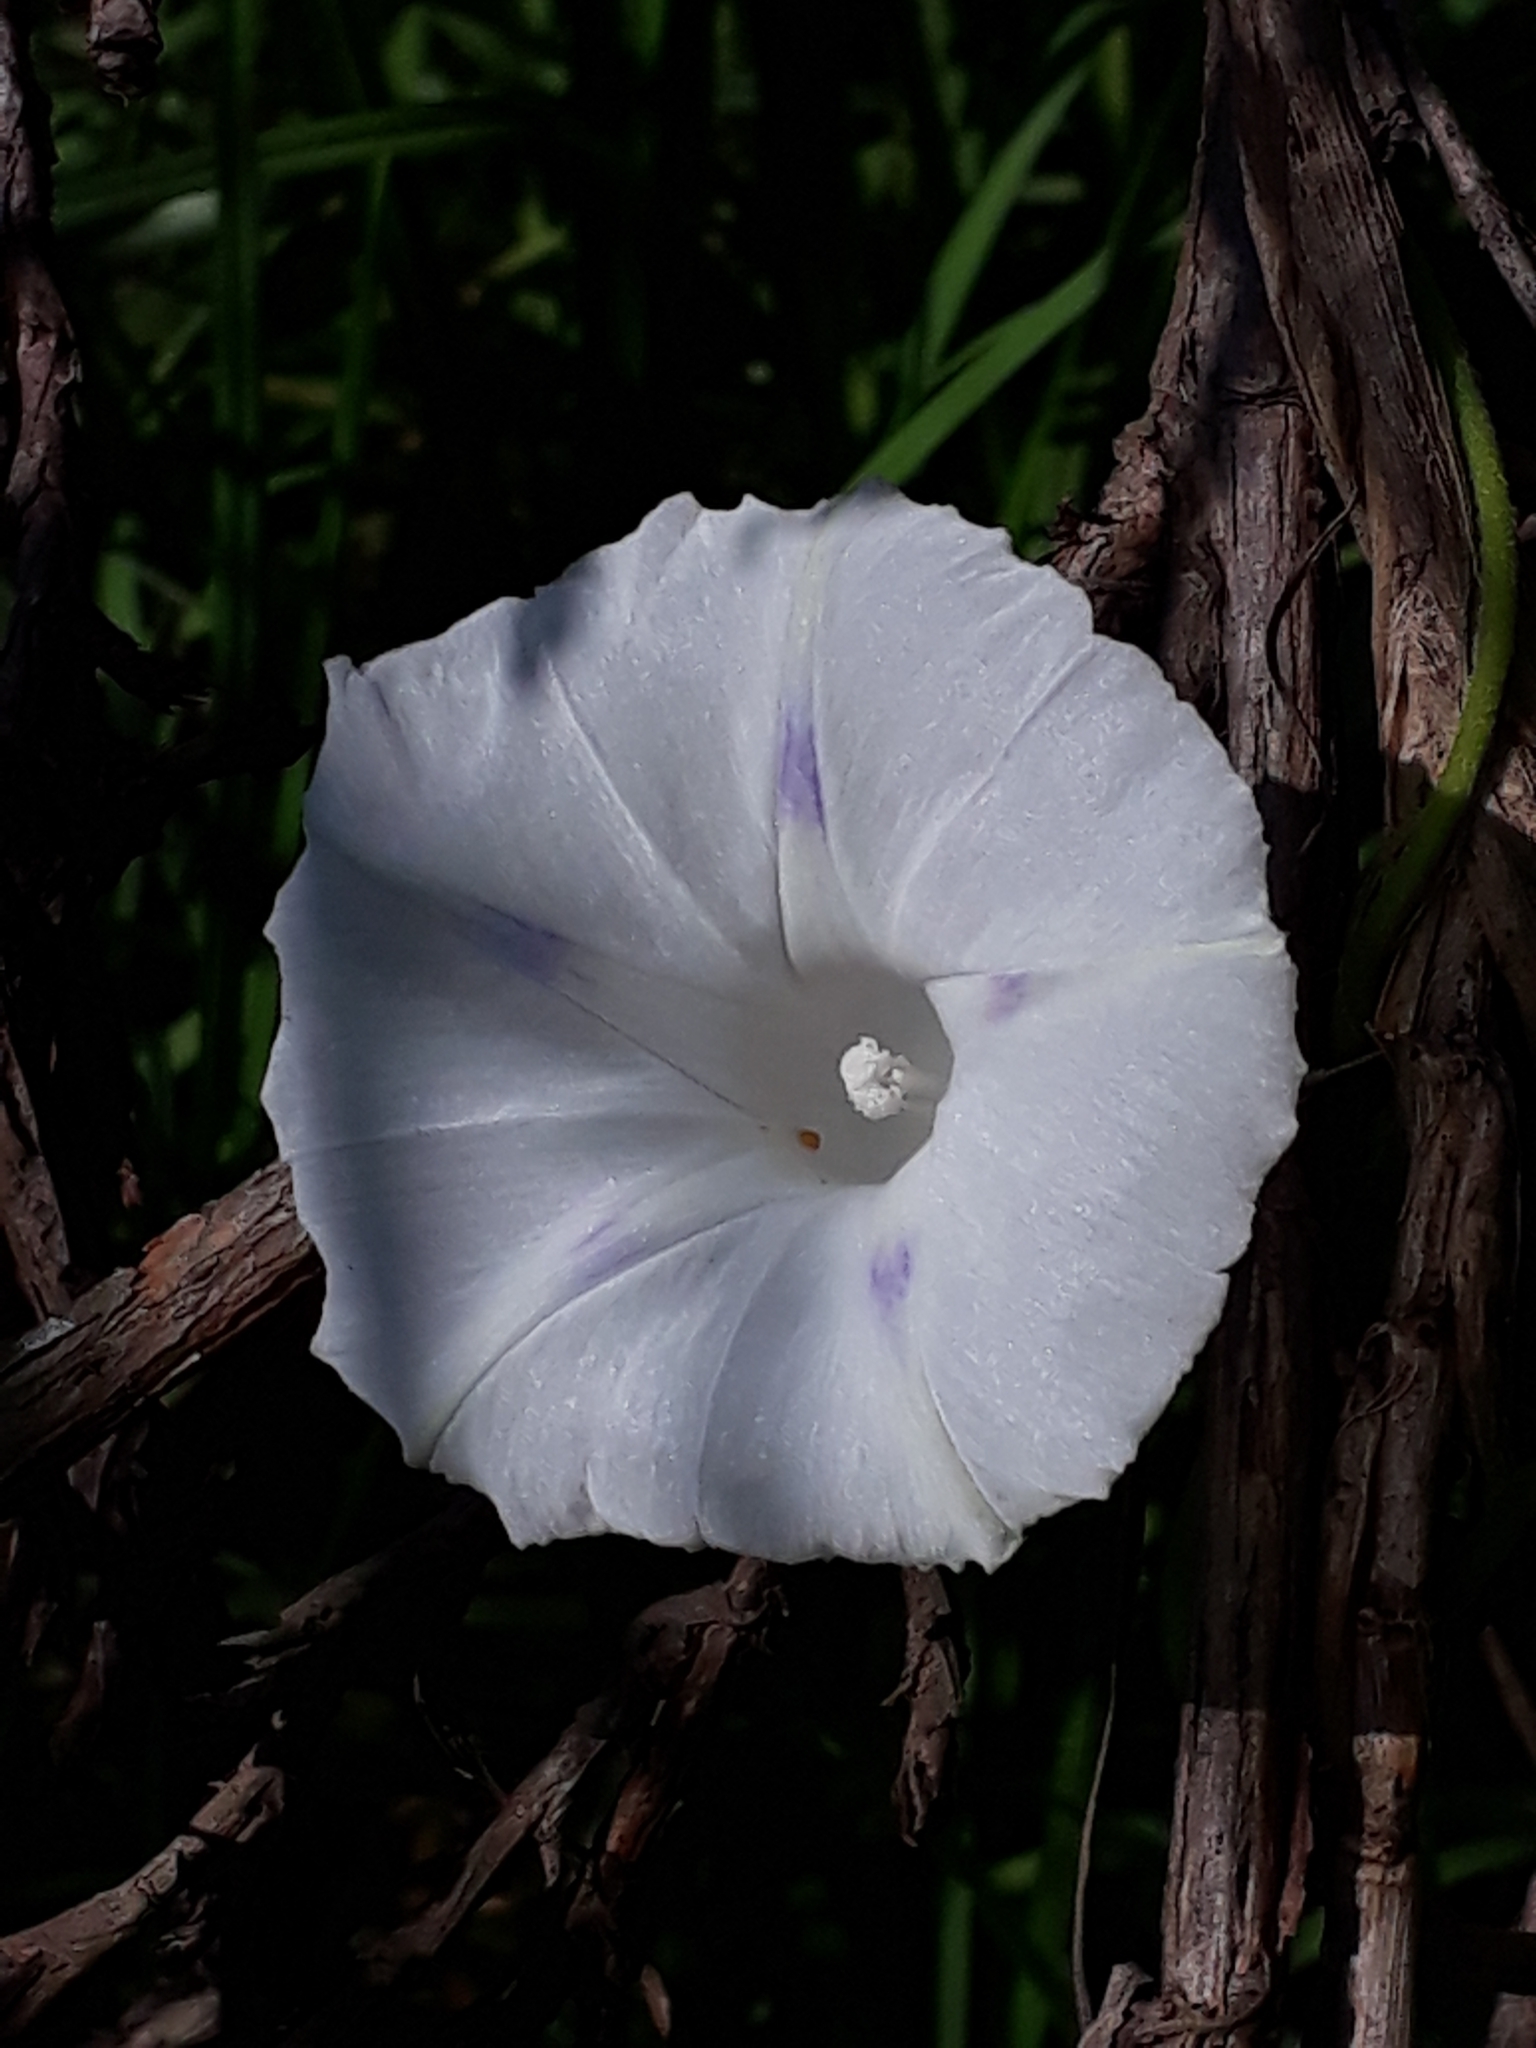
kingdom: Plantae
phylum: Tracheophyta
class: Magnoliopsida
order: Solanales
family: Convolvulaceae
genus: Ipomoea
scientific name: Ipomoea purpurea
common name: Common morning-glory
